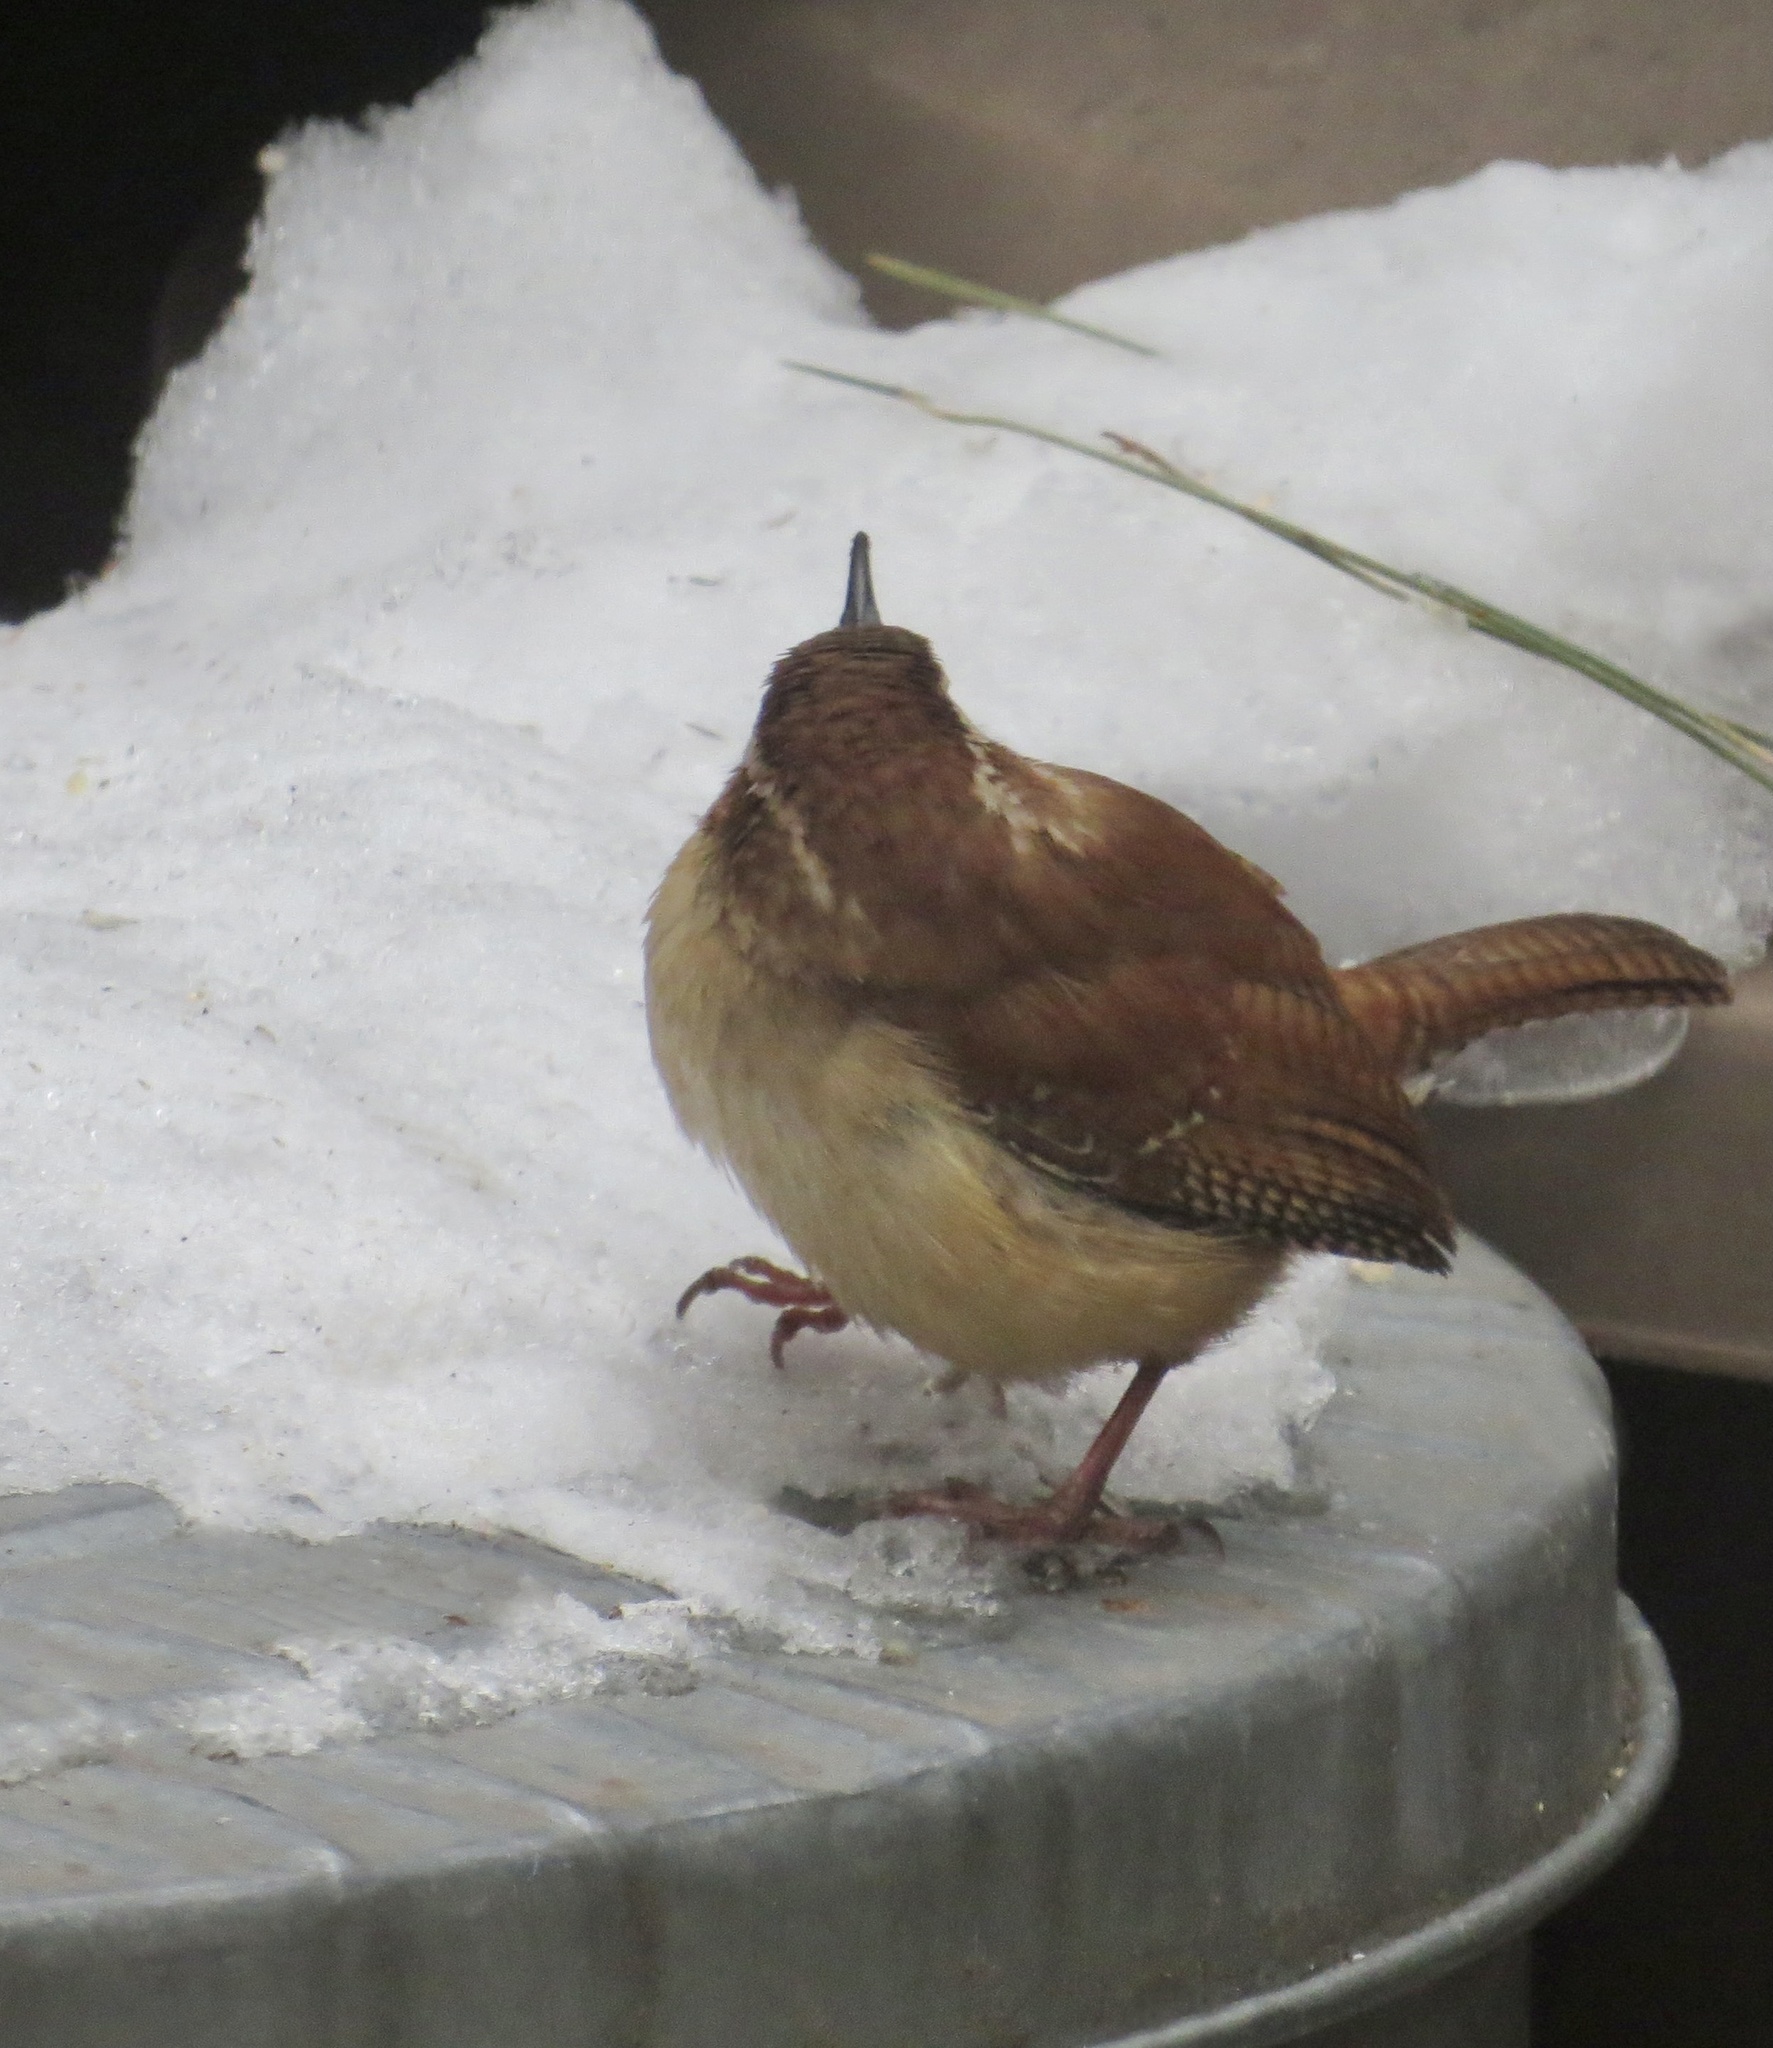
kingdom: Animalia
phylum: Chordata
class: Aves
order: Passeriformes
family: Troglodytidae
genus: Thryothorus
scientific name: Thryothorus ludovicianus
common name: Carolina wren
